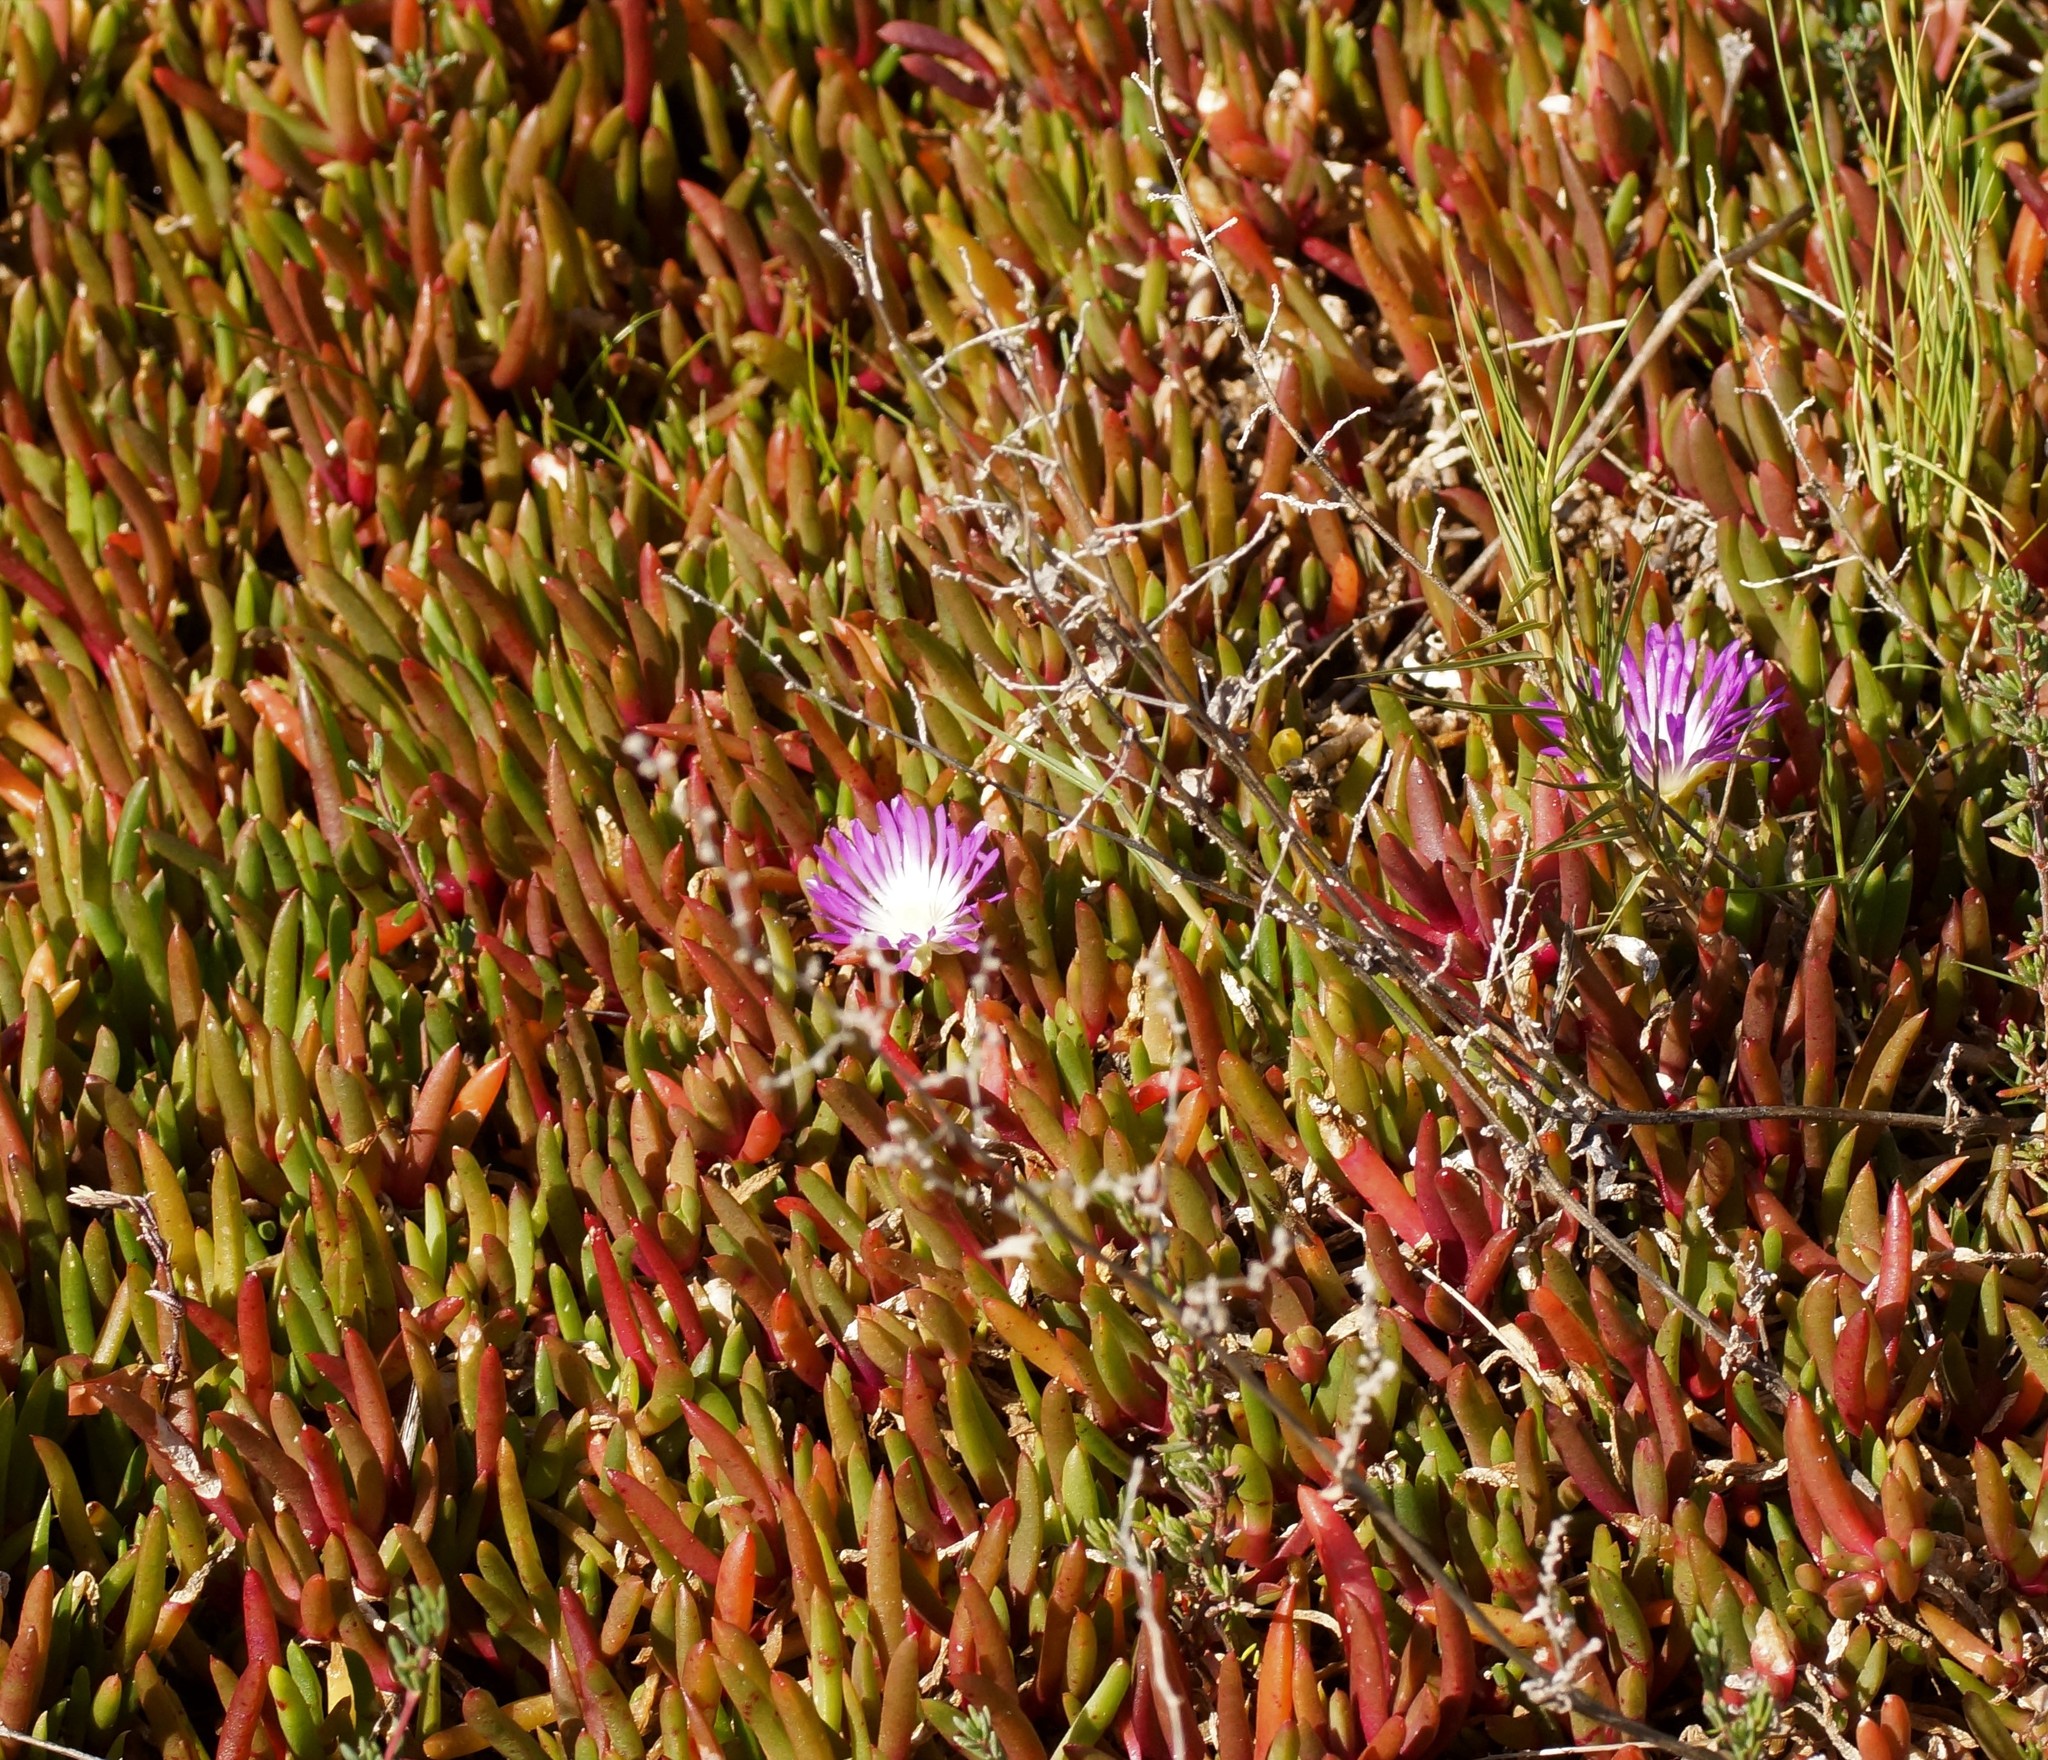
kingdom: Plantae
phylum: Tracheophyta
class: Magnoliopsida
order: Caryophyllales
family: Aizoaceae
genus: Disphyma
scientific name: Disphyma clavellatum
